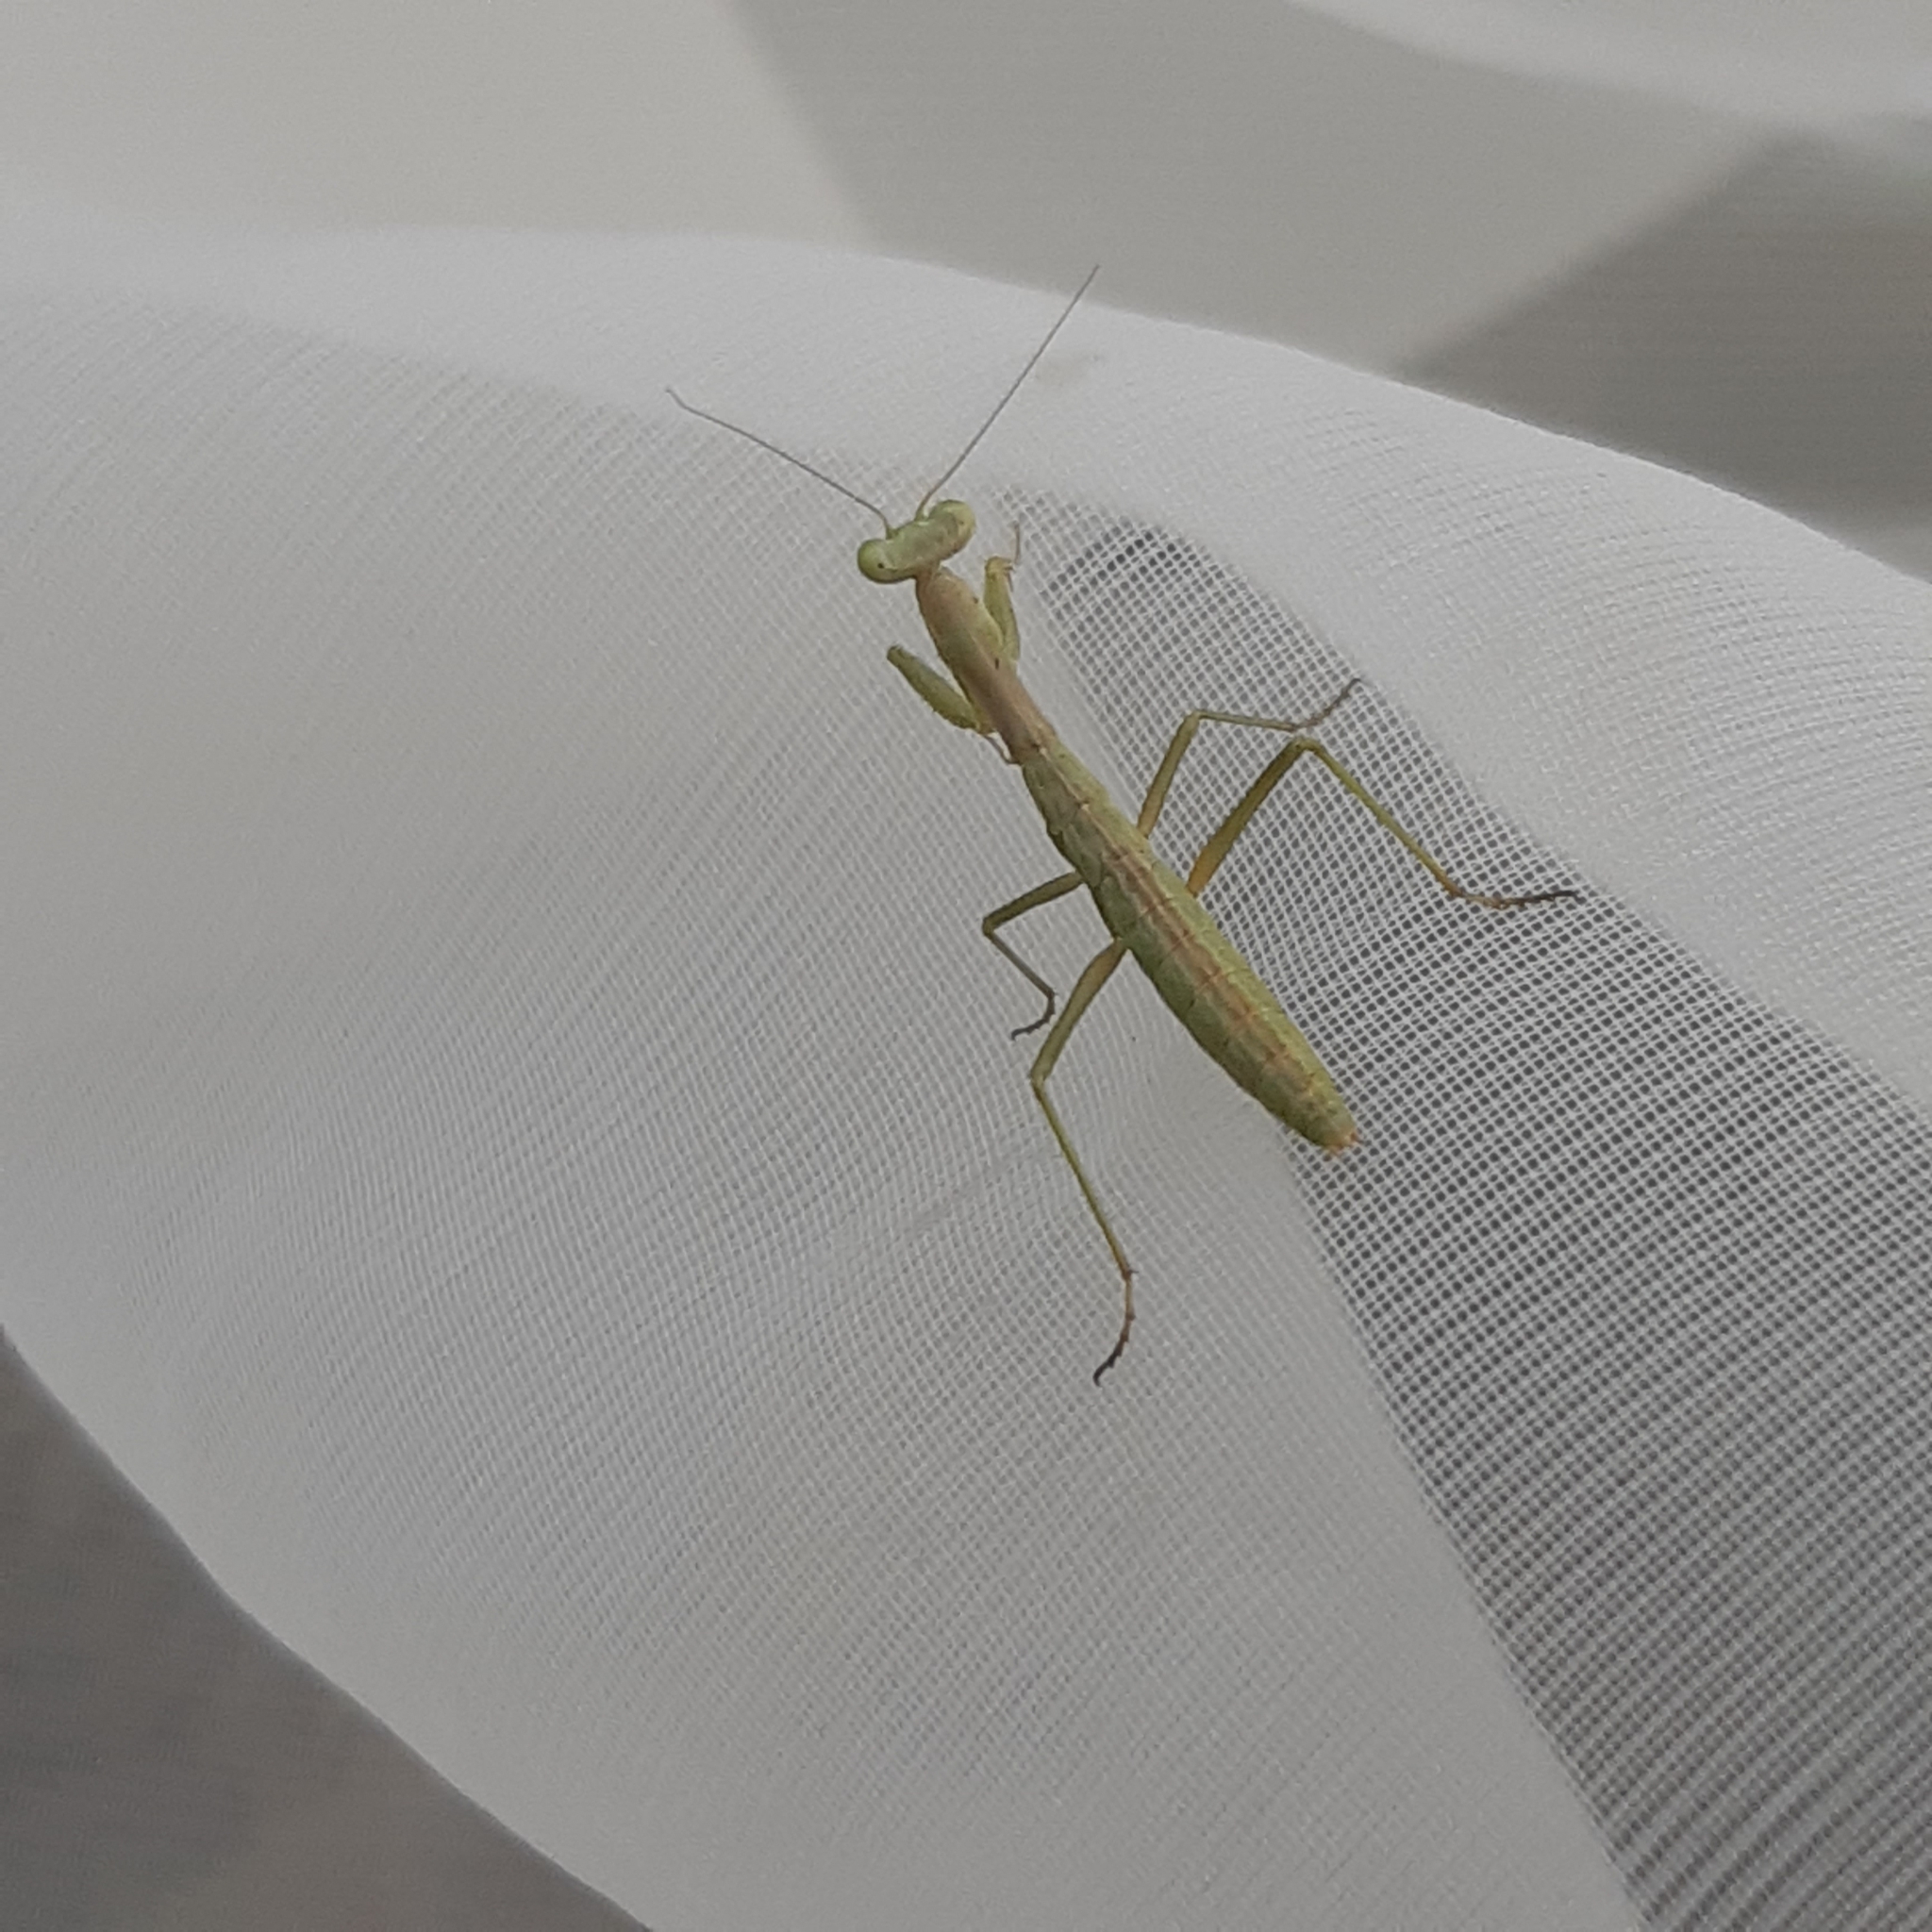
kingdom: Animalia
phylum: Arthropoda
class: Insecta
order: Mantodea
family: Eremiaphilidae
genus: Iris
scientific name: Iris oratoria
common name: Mediterranean mantis
